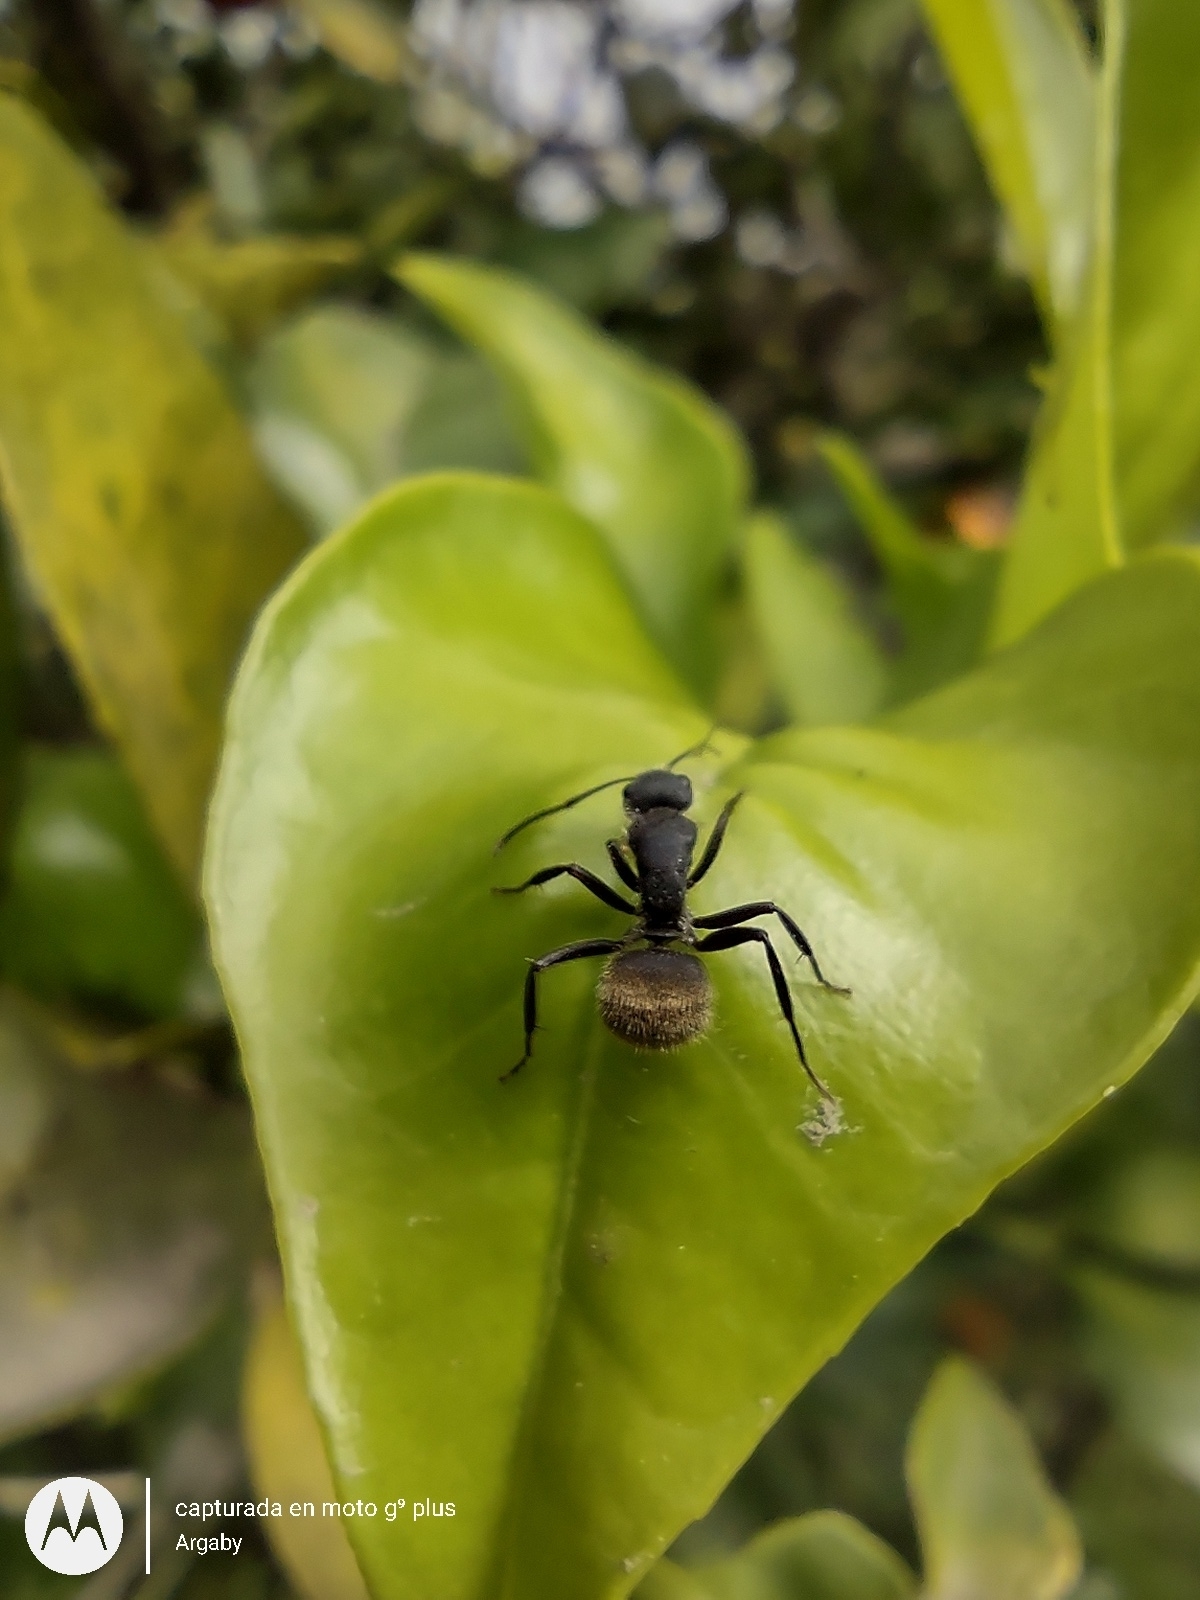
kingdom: Animalia
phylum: Arthropoda
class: Insecta
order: Hymenoptera
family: Formicidae
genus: Camponotus
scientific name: Camponotus mus
